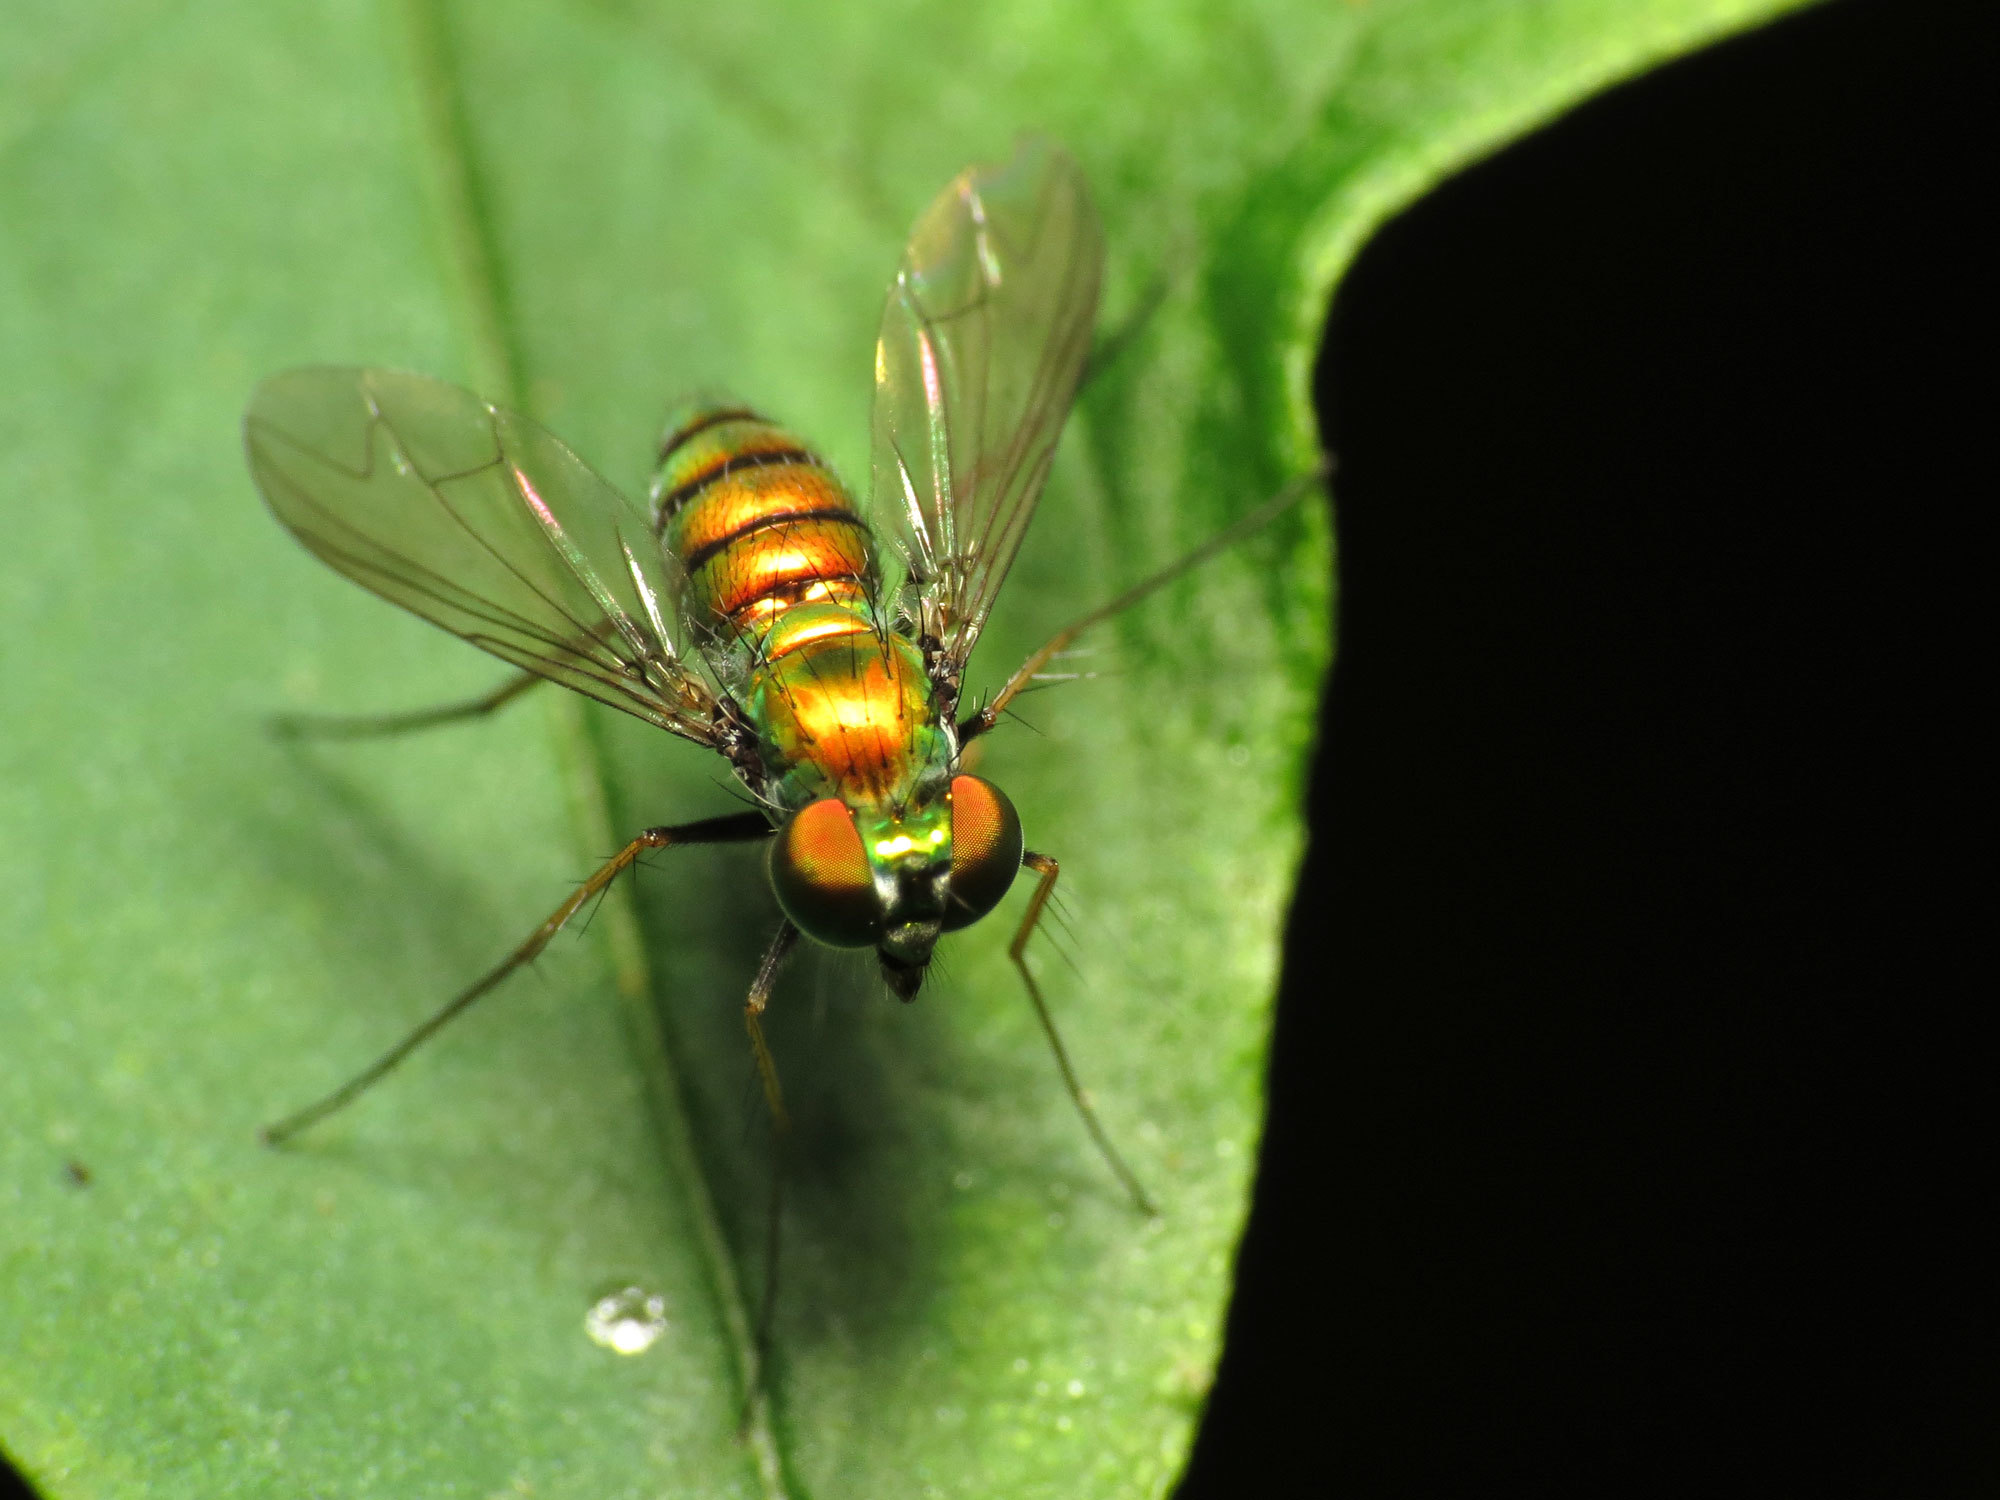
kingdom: Animalia
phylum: Arthropoda
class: Insecta
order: Diptera
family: Dolichopodidae
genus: Condylostylus
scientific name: Condylostylus
